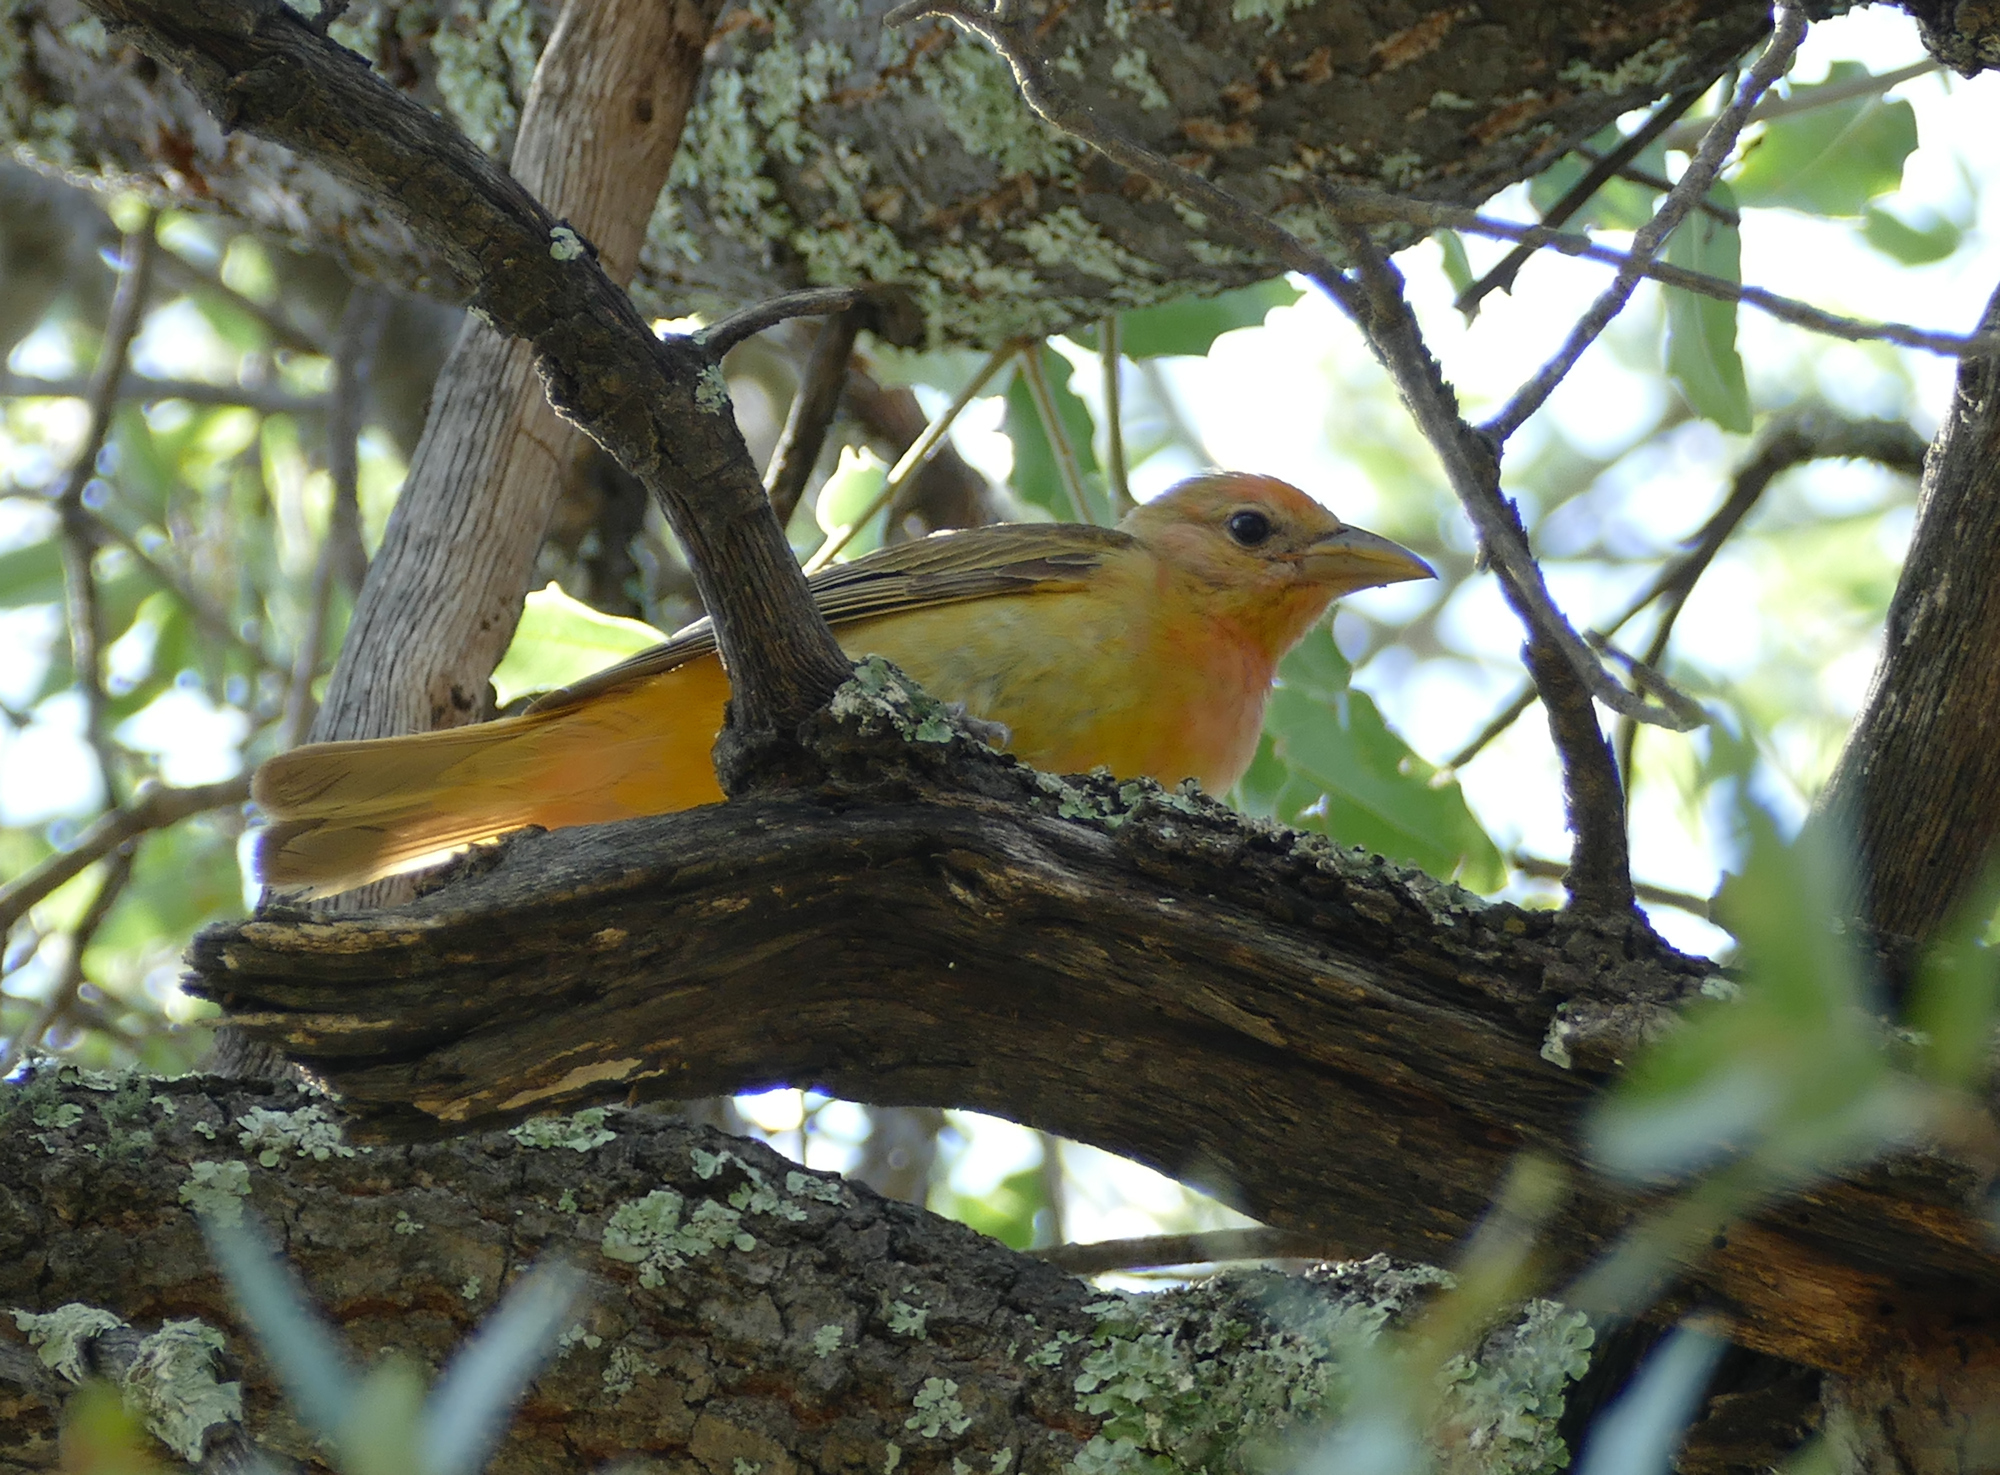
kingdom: Animalia
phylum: Chordata
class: Aves
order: Passeriformes
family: Cardinalidae
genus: Piranga
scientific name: Piranga rubra
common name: Summer tanager
